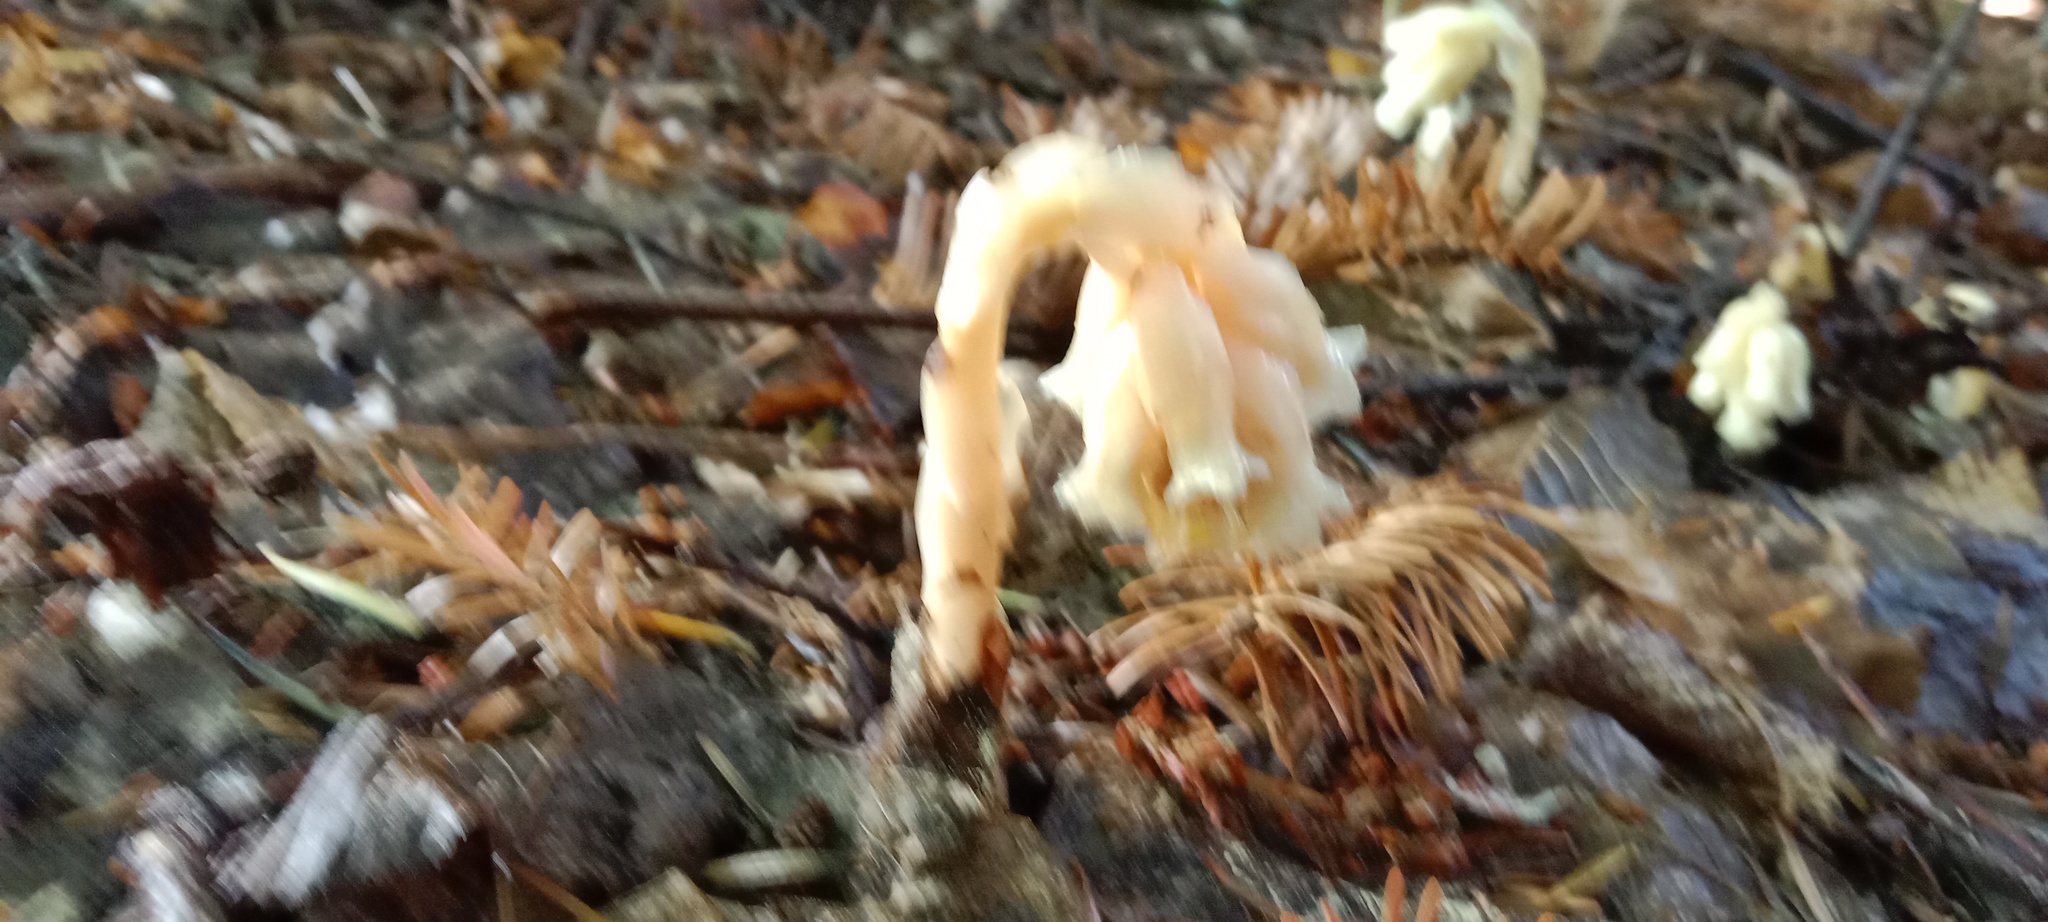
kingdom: Plantae
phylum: Tracheophyta
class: Magnoliopsida
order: Ericales
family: Ericaceae
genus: Hypopitys
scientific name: Hypopitys monotropa
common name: Yellow bird's-nest
